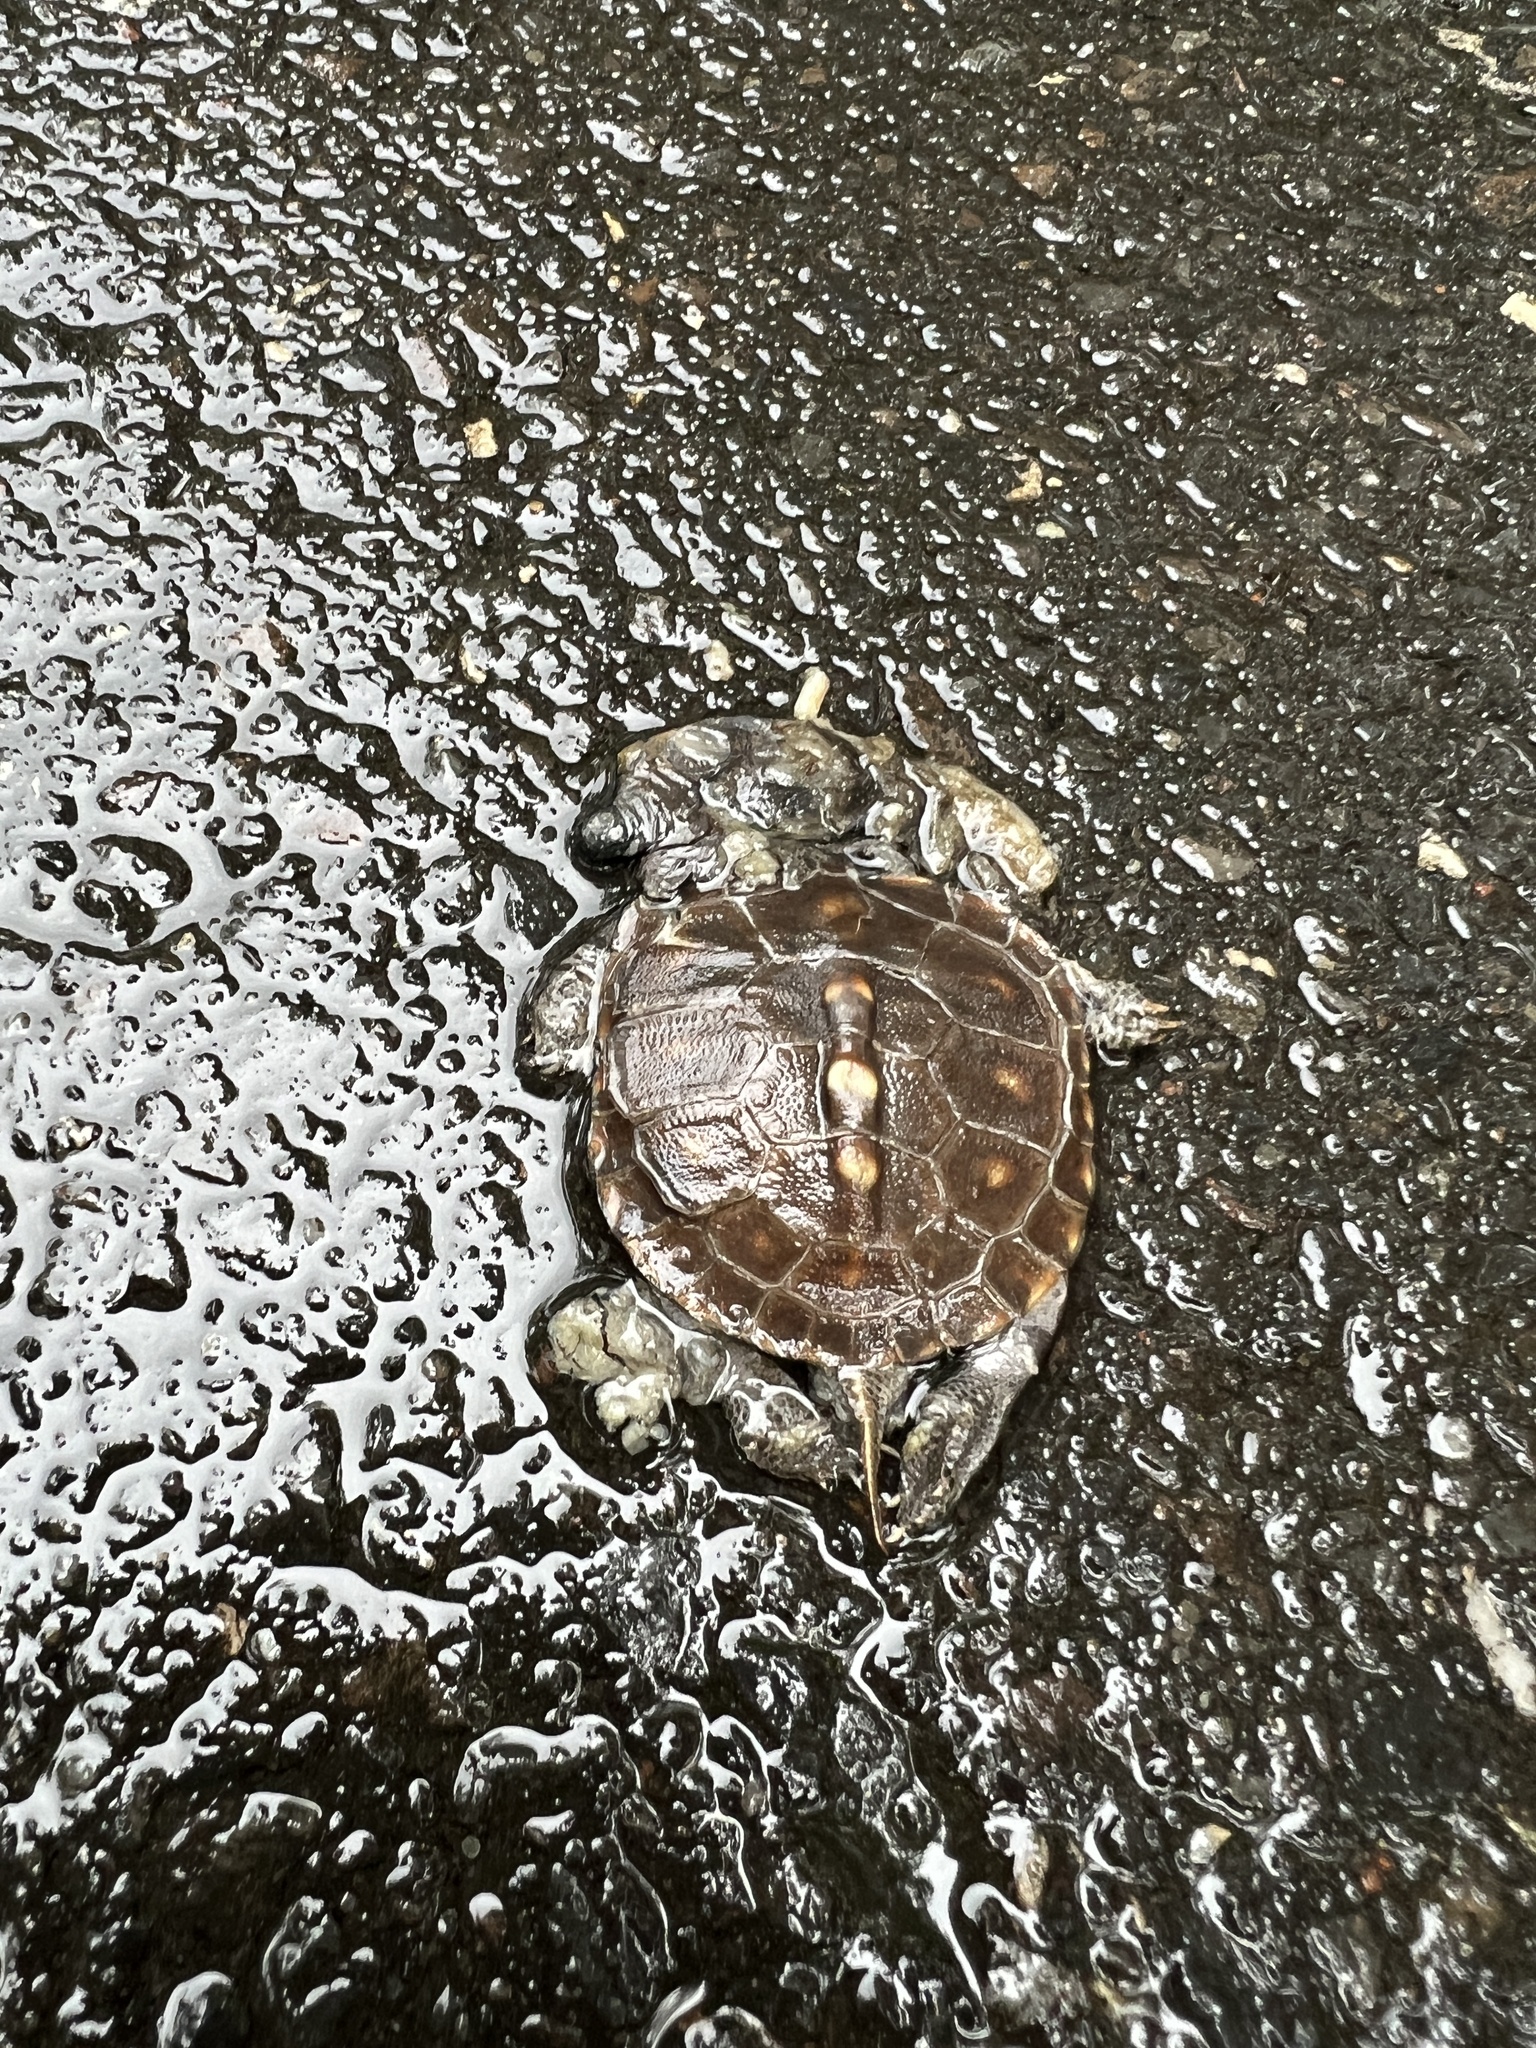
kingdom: Animalia
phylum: Chordata
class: Testudines
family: Emydidae
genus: Terrapene
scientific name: Terrapene carolina
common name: Common box turtle
